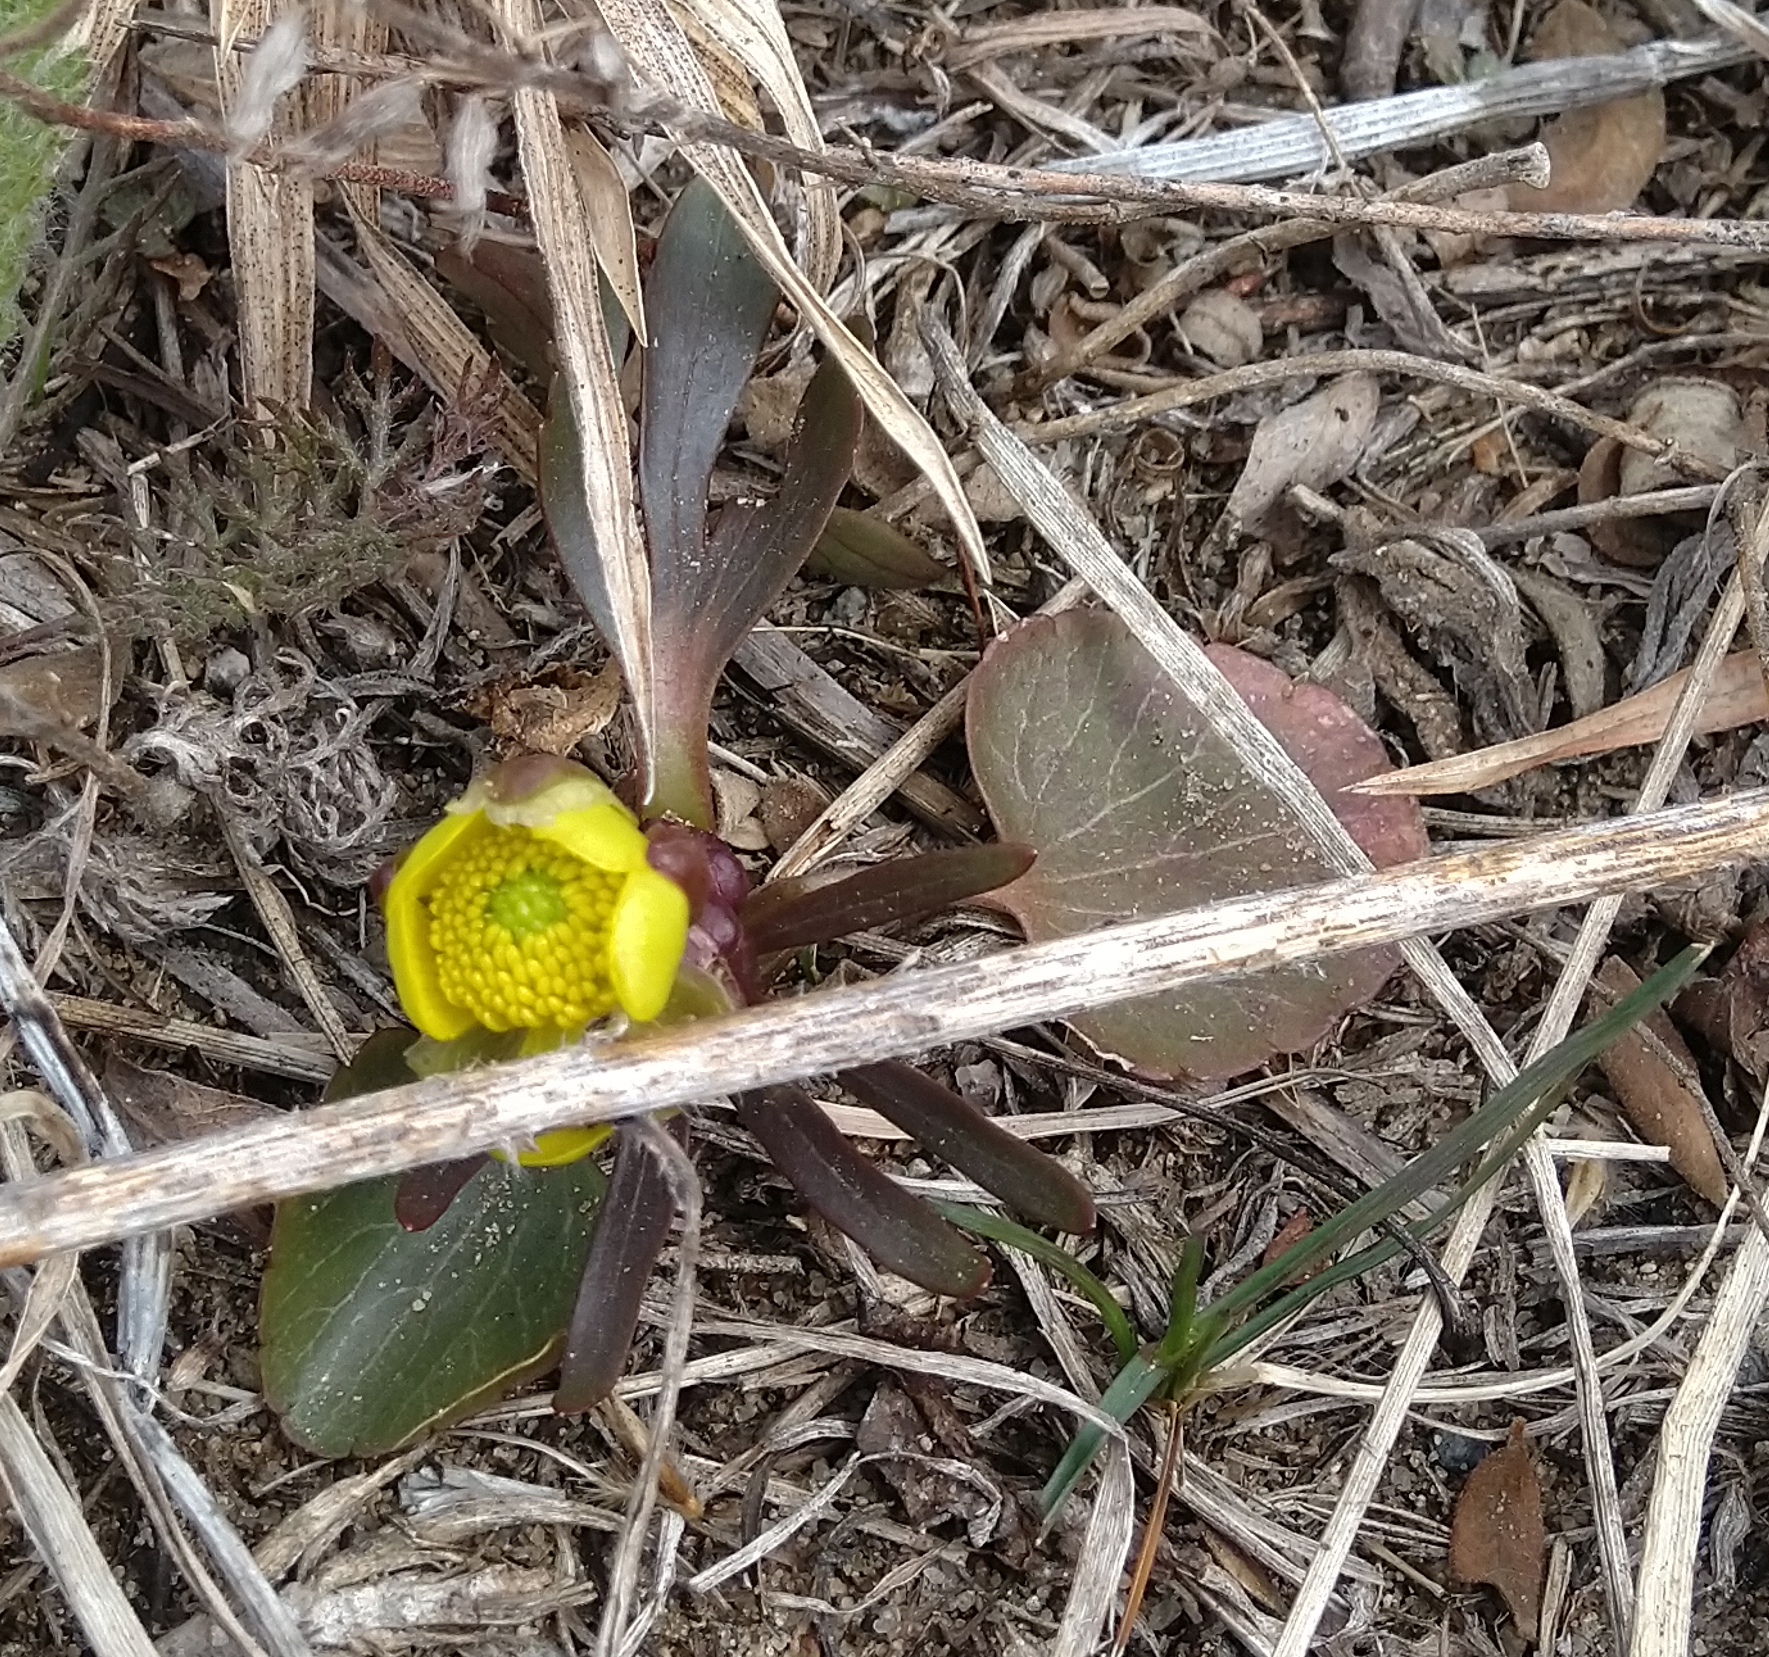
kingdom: Plantae
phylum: Tracheophyta
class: Magnoliopsida
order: Ranunculales
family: Ranunculaceae
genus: Ranunculus
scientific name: Ranunculus rhomboideus
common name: Prairie buttercup
